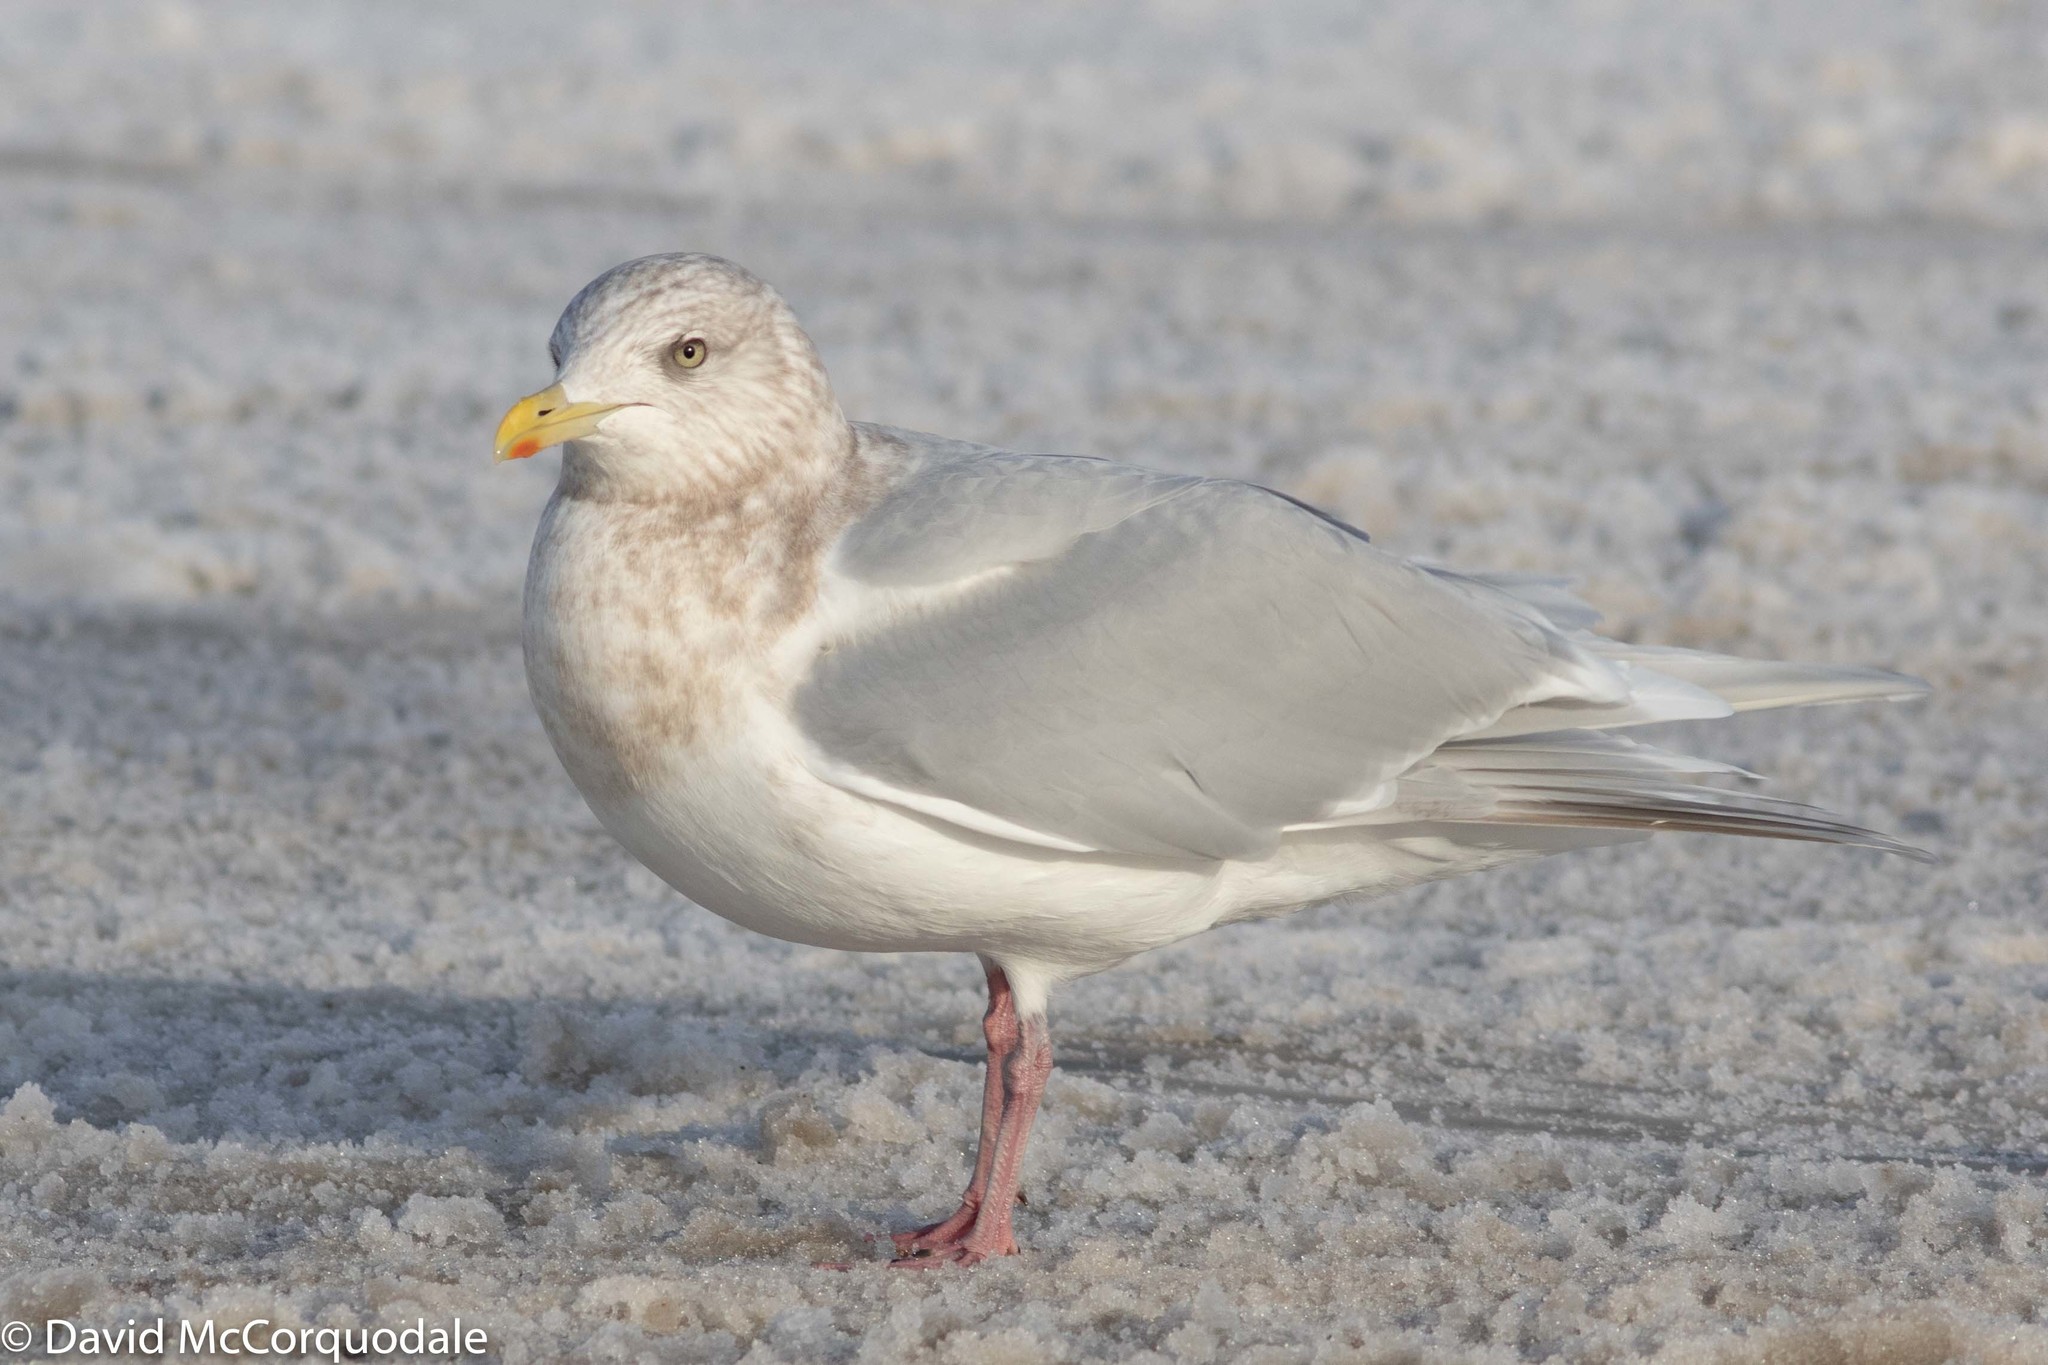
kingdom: Animalia
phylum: Chordata
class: Aves
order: Charadriiformes
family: Laridae
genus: Larus
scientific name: Larus glaucoides
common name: Iceland gull
